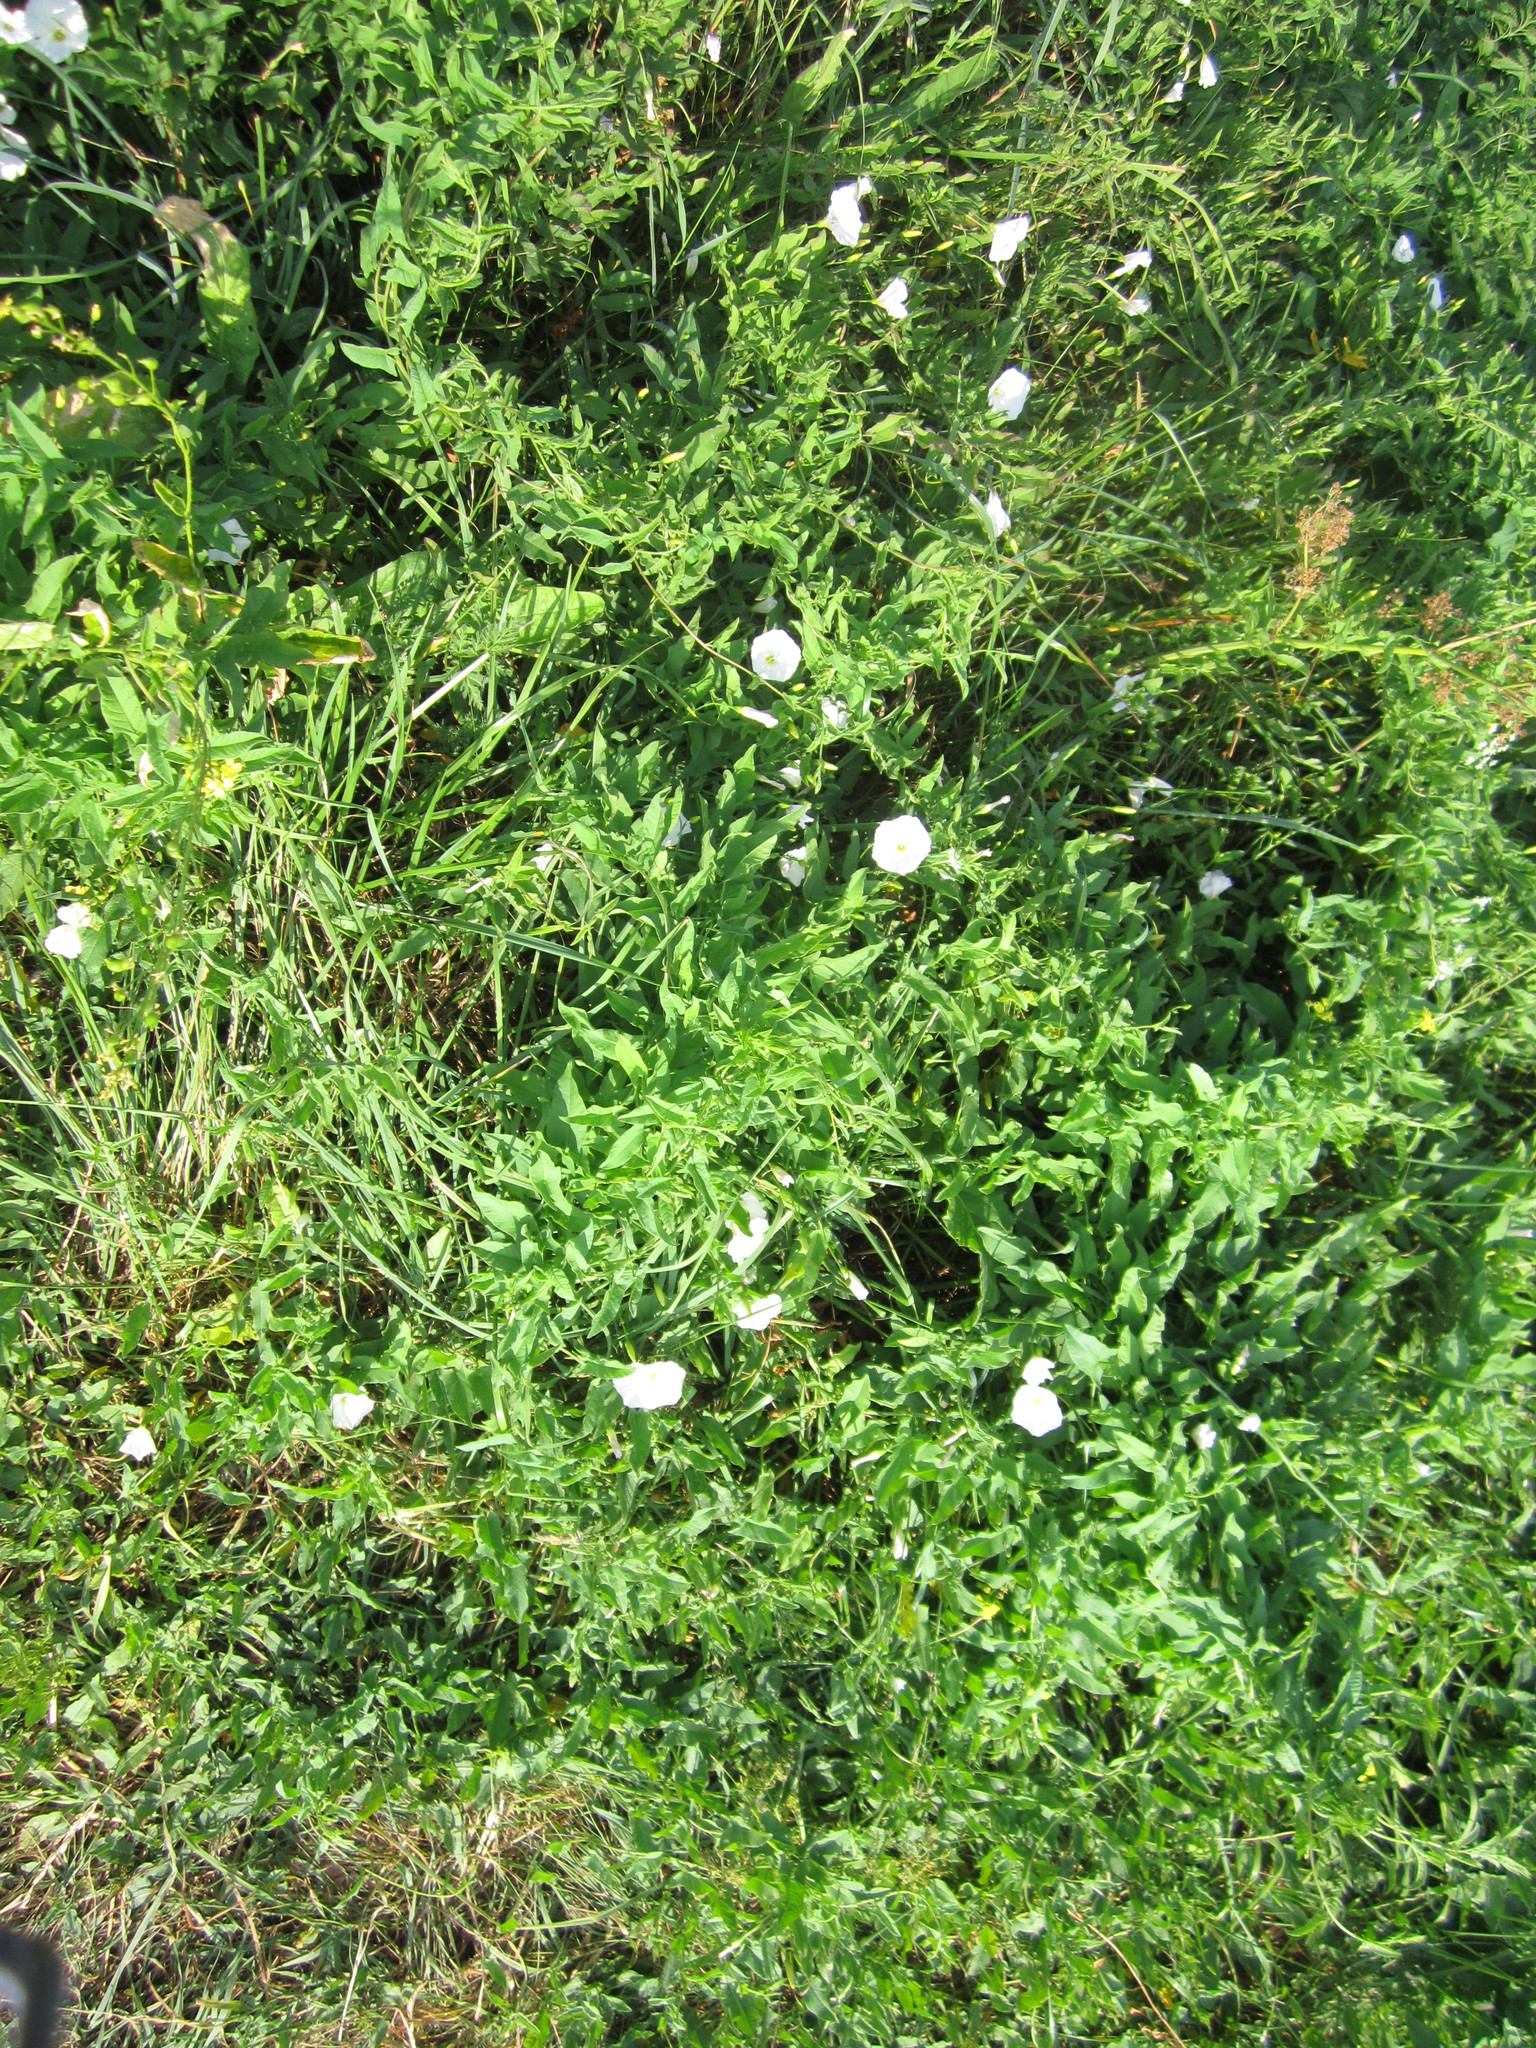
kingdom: Plantae
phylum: Tracheophyta
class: Magnoliopsida
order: Solanales
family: Convolvulaceae
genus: Convolvulus
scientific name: Convolvulus arvensis
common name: Field bindweed
